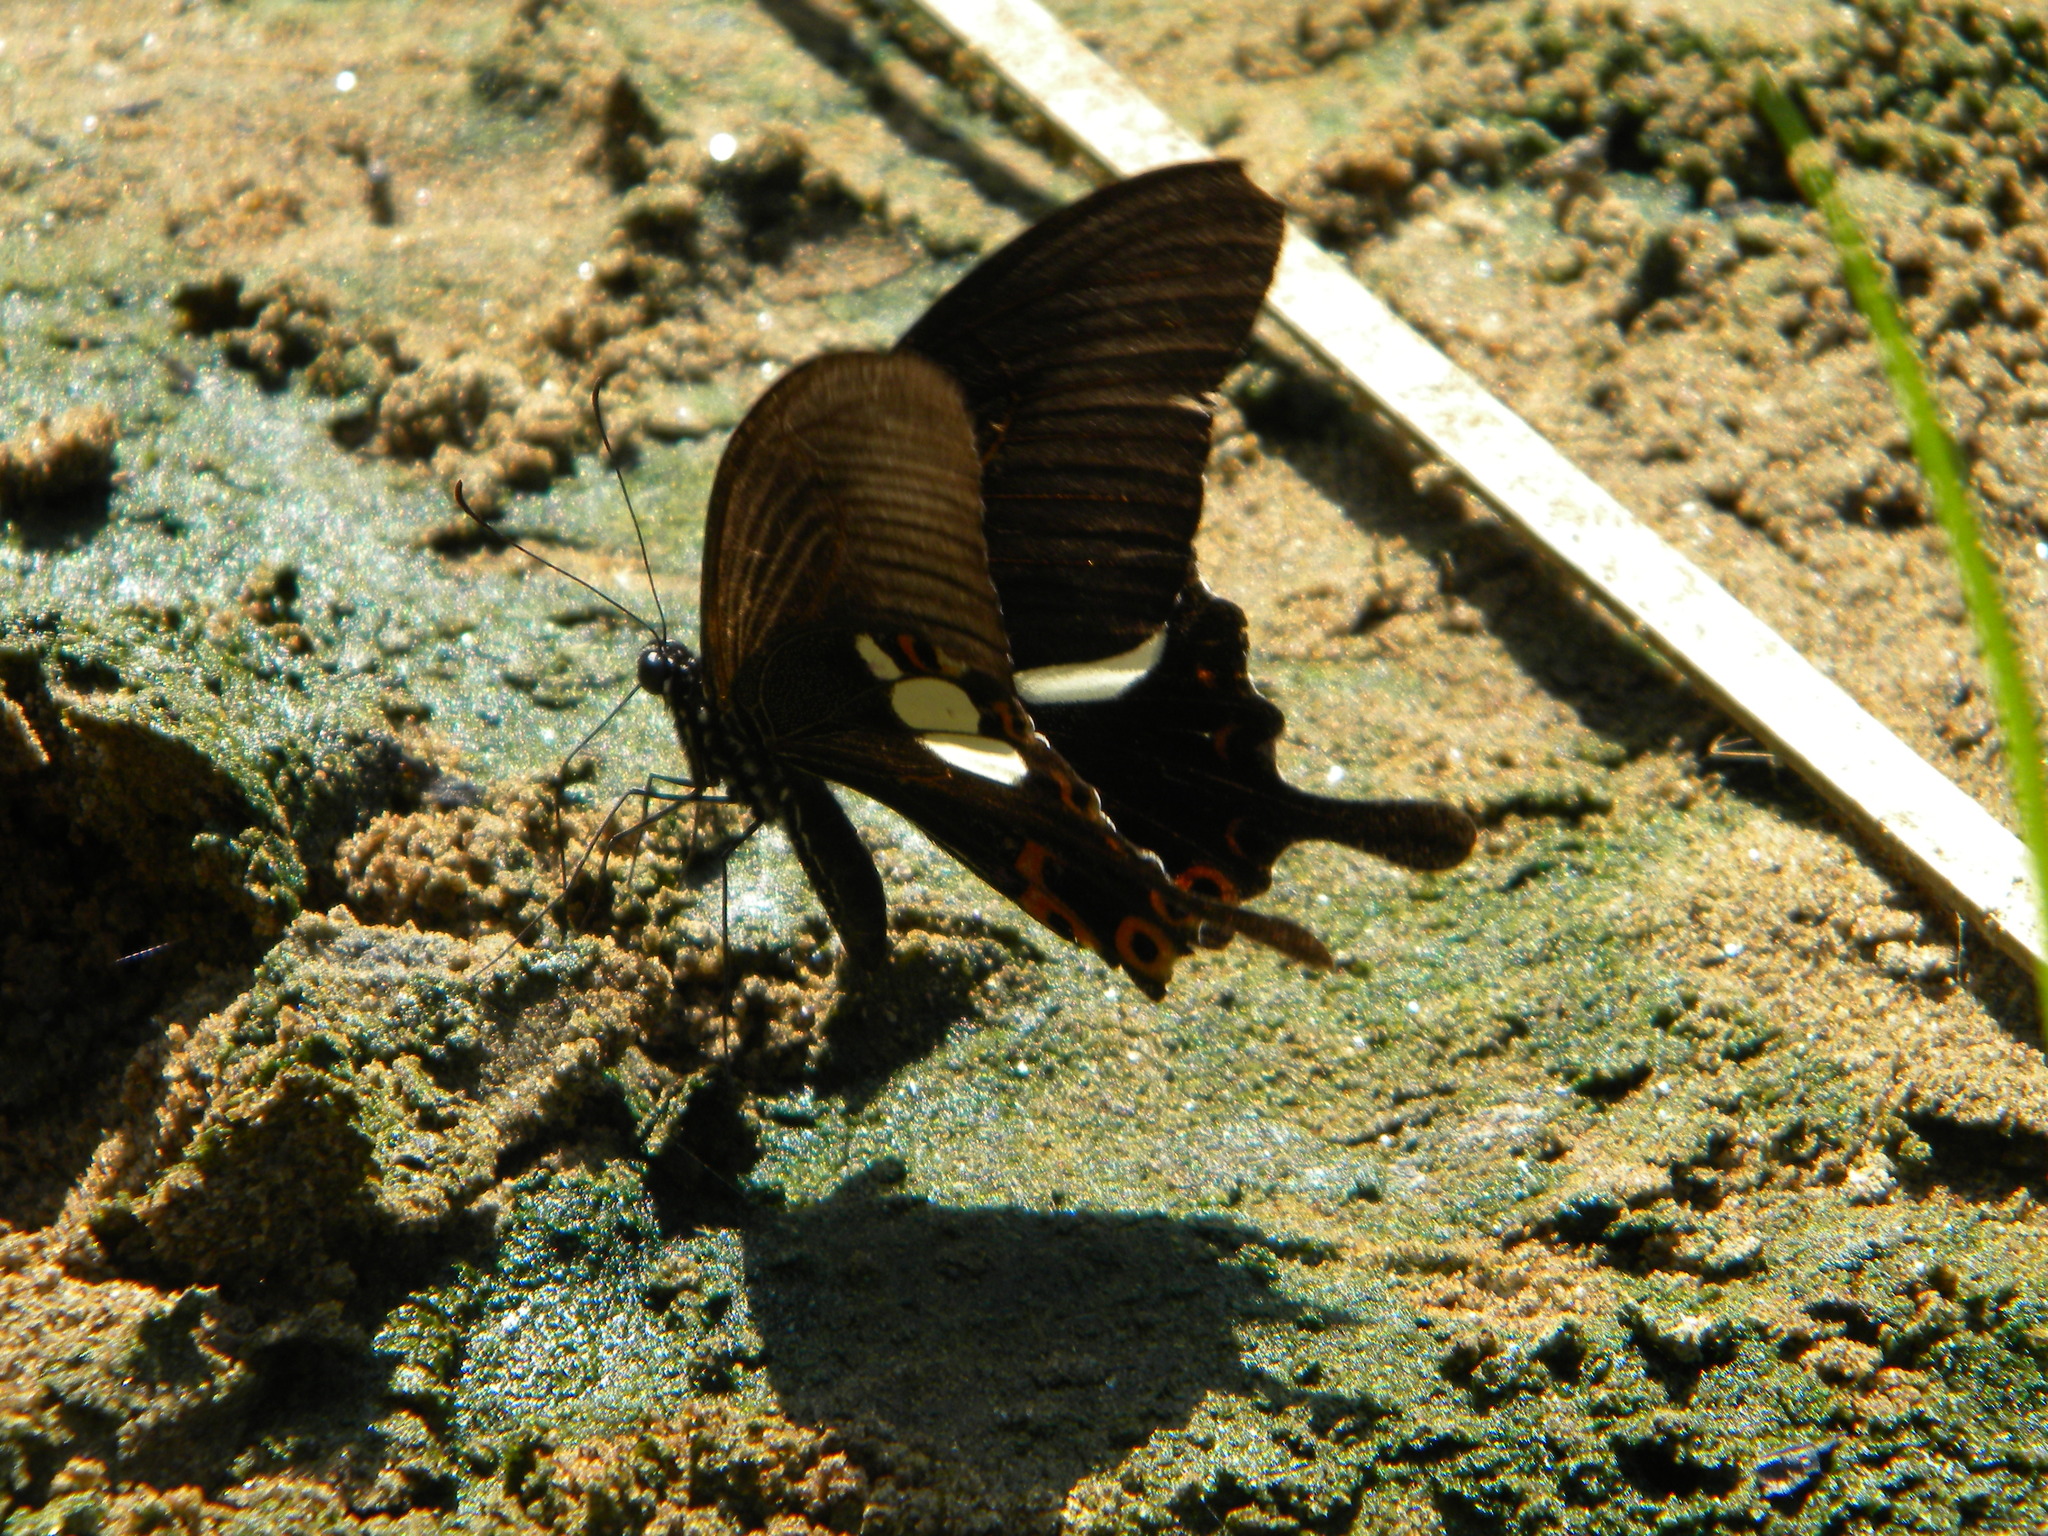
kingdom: Animalia
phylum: Arthropoda
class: Insecta
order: Lepidoptera
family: Papilionidae
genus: Papilio
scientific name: Papilio helenus
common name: Red helen
